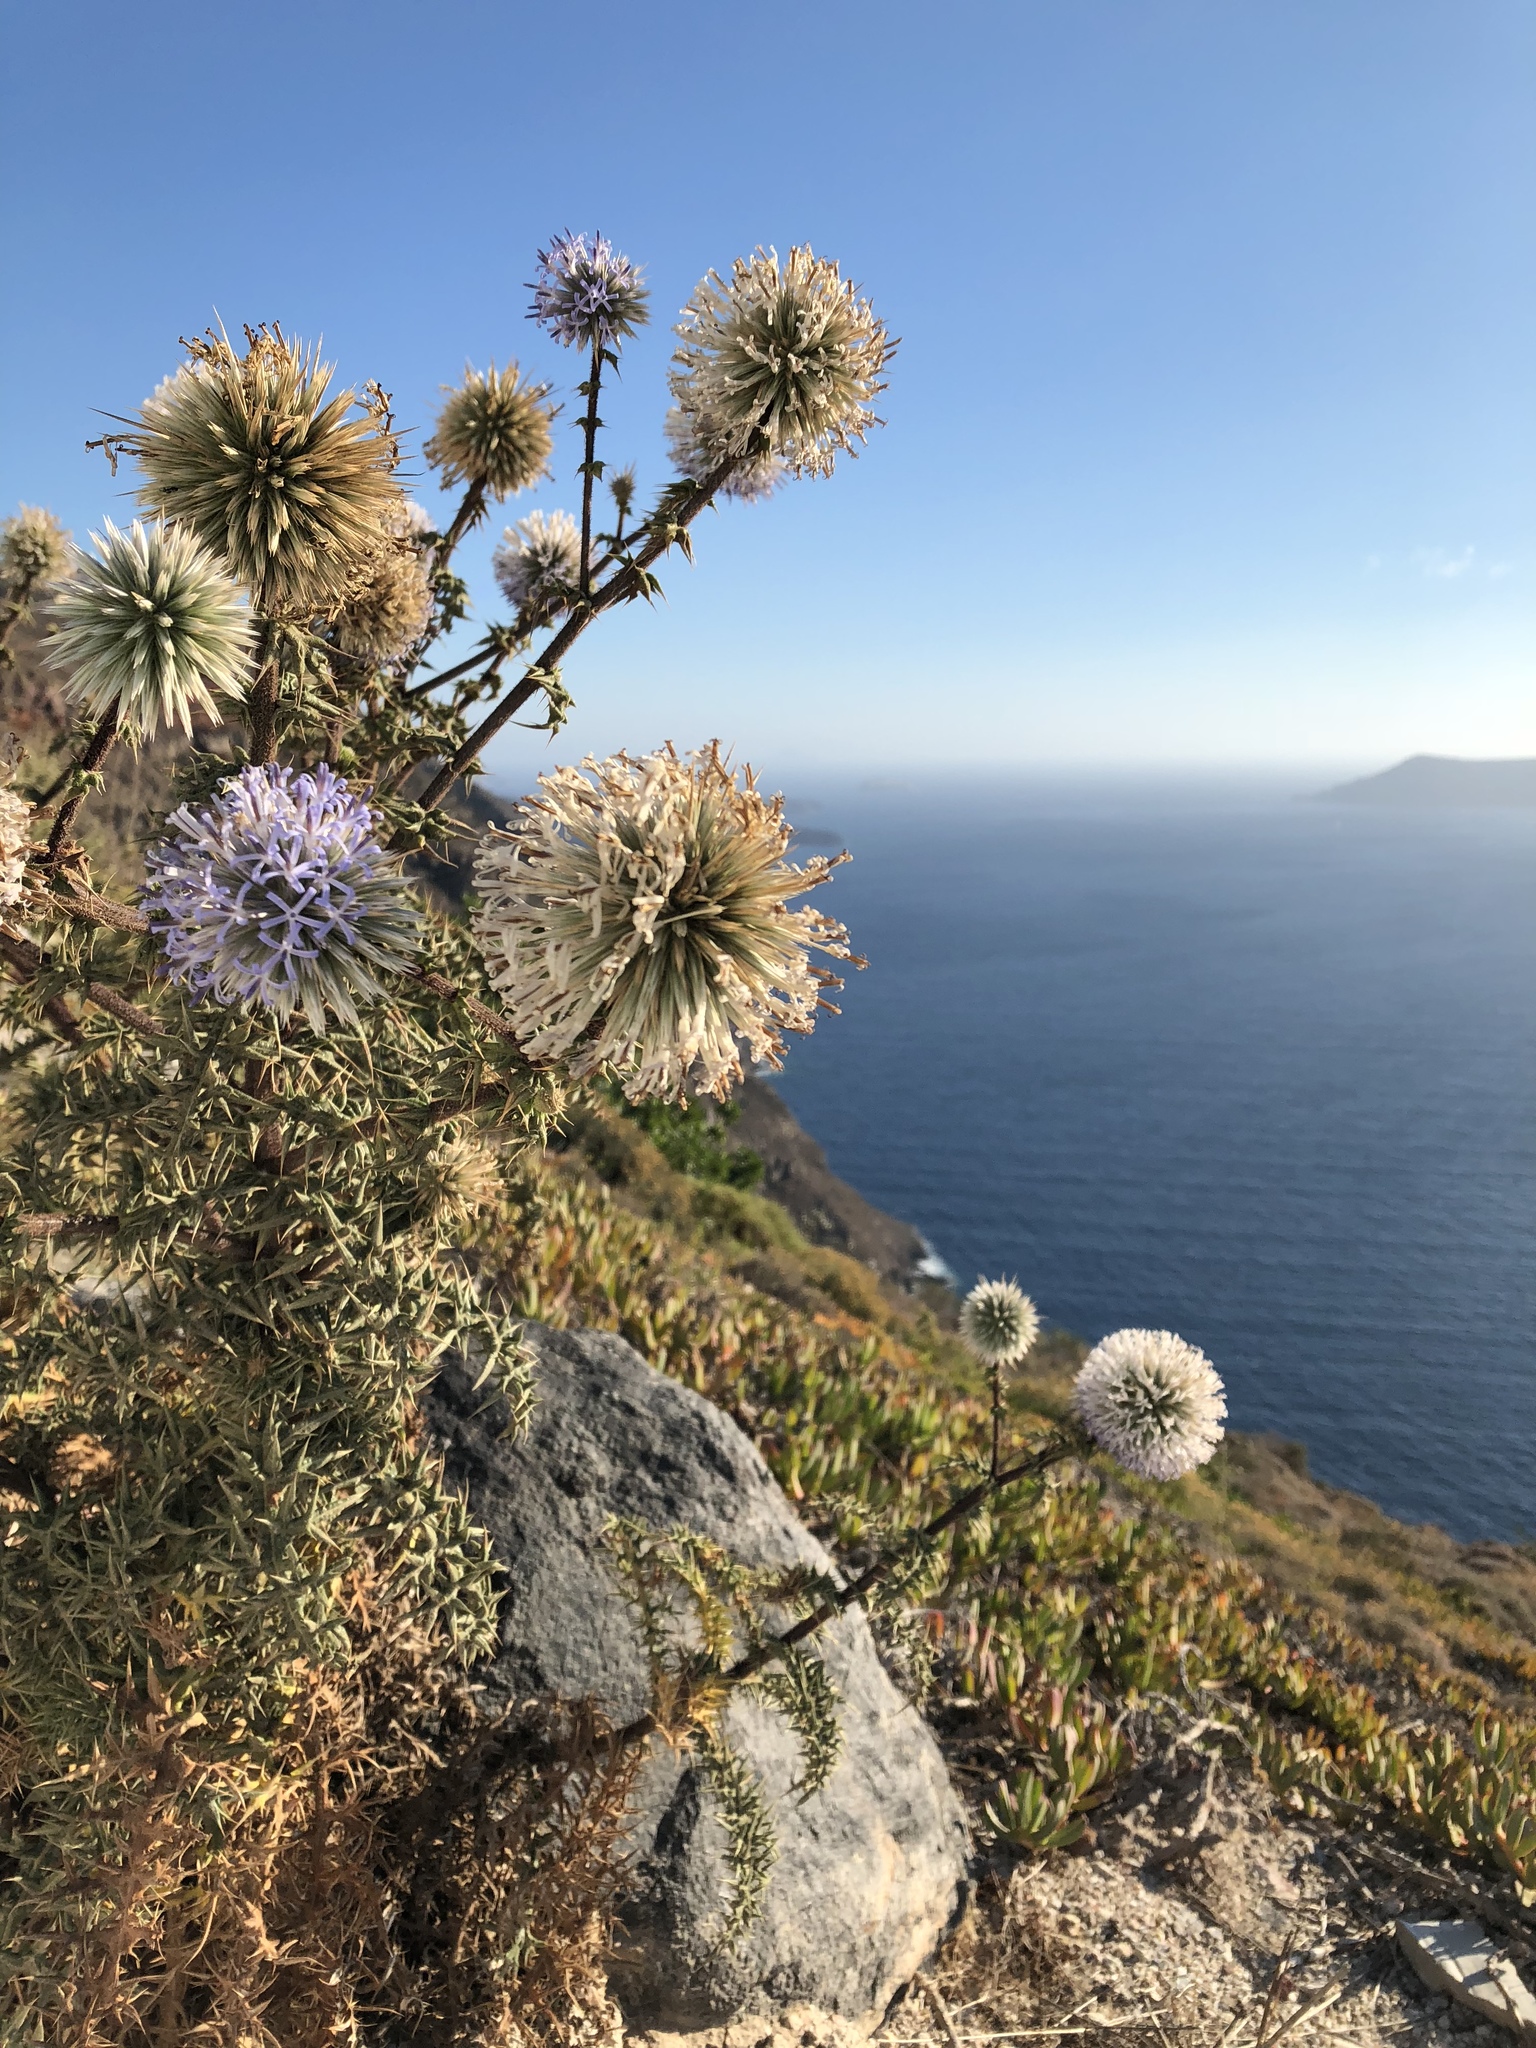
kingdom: Plantae
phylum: Tracheophyta
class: Magnoliopsida
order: Asterales
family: Asteraceae
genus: Echinops
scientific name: Echinops spinosissimus
